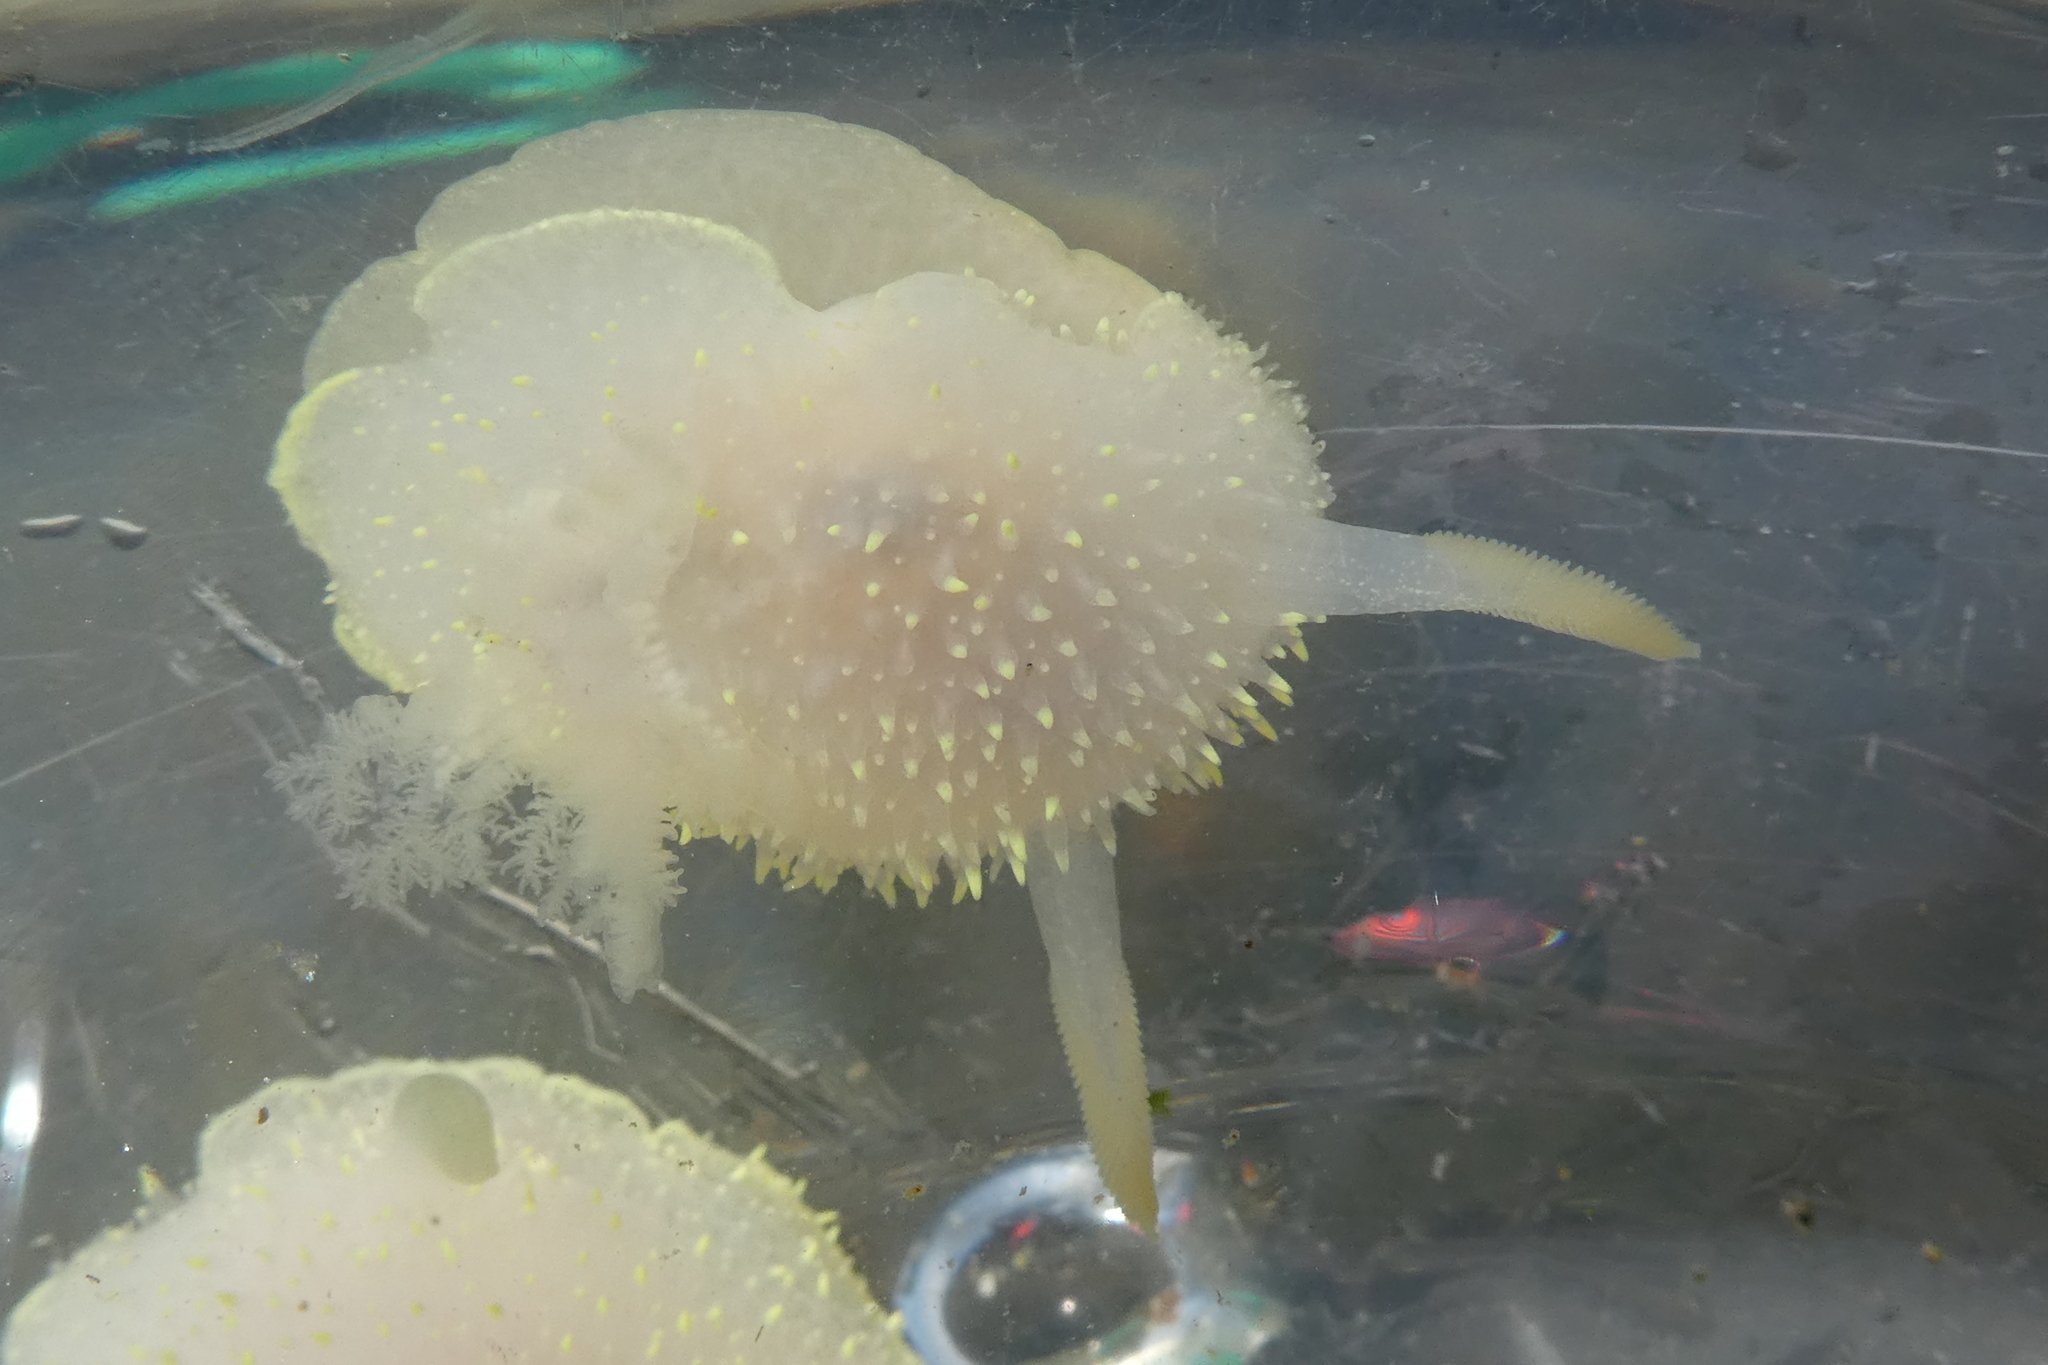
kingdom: Animalia
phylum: Mollusca
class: Gastropoda
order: Nudibranchia
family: Onchidorididae
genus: Acanthodoris
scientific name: Acanthodoris hudsoni
